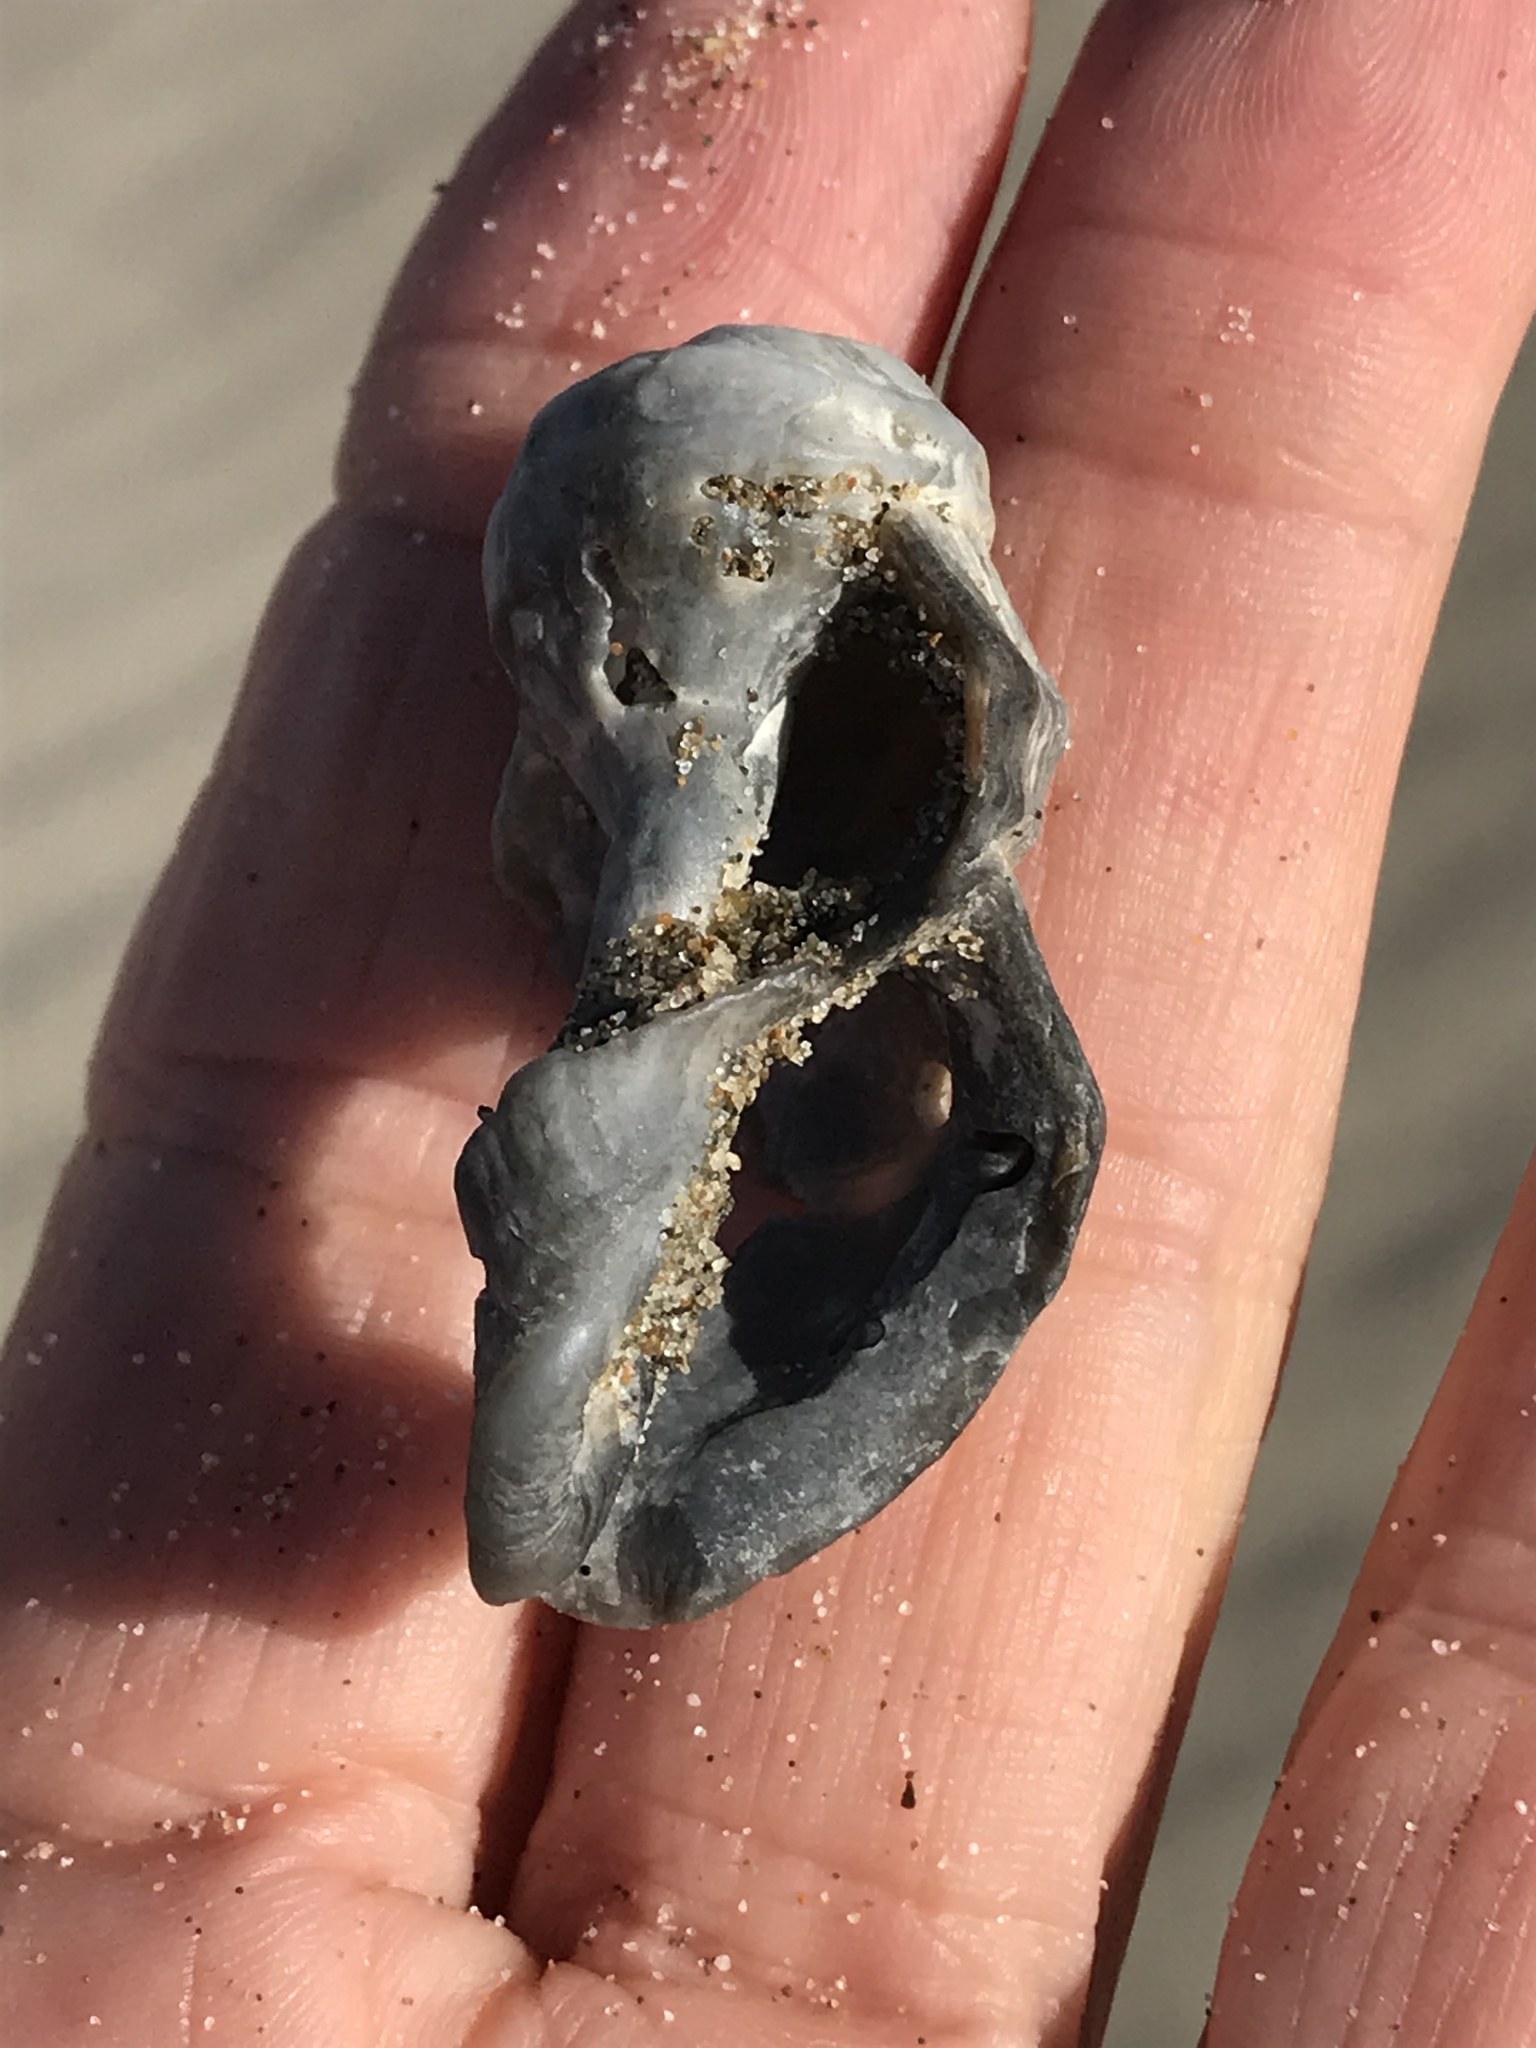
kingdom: Animalia
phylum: Mollusca
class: Gastropoda
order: Neogastropoda
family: Muricidae
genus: Nucella
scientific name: Nucella lamellosa
